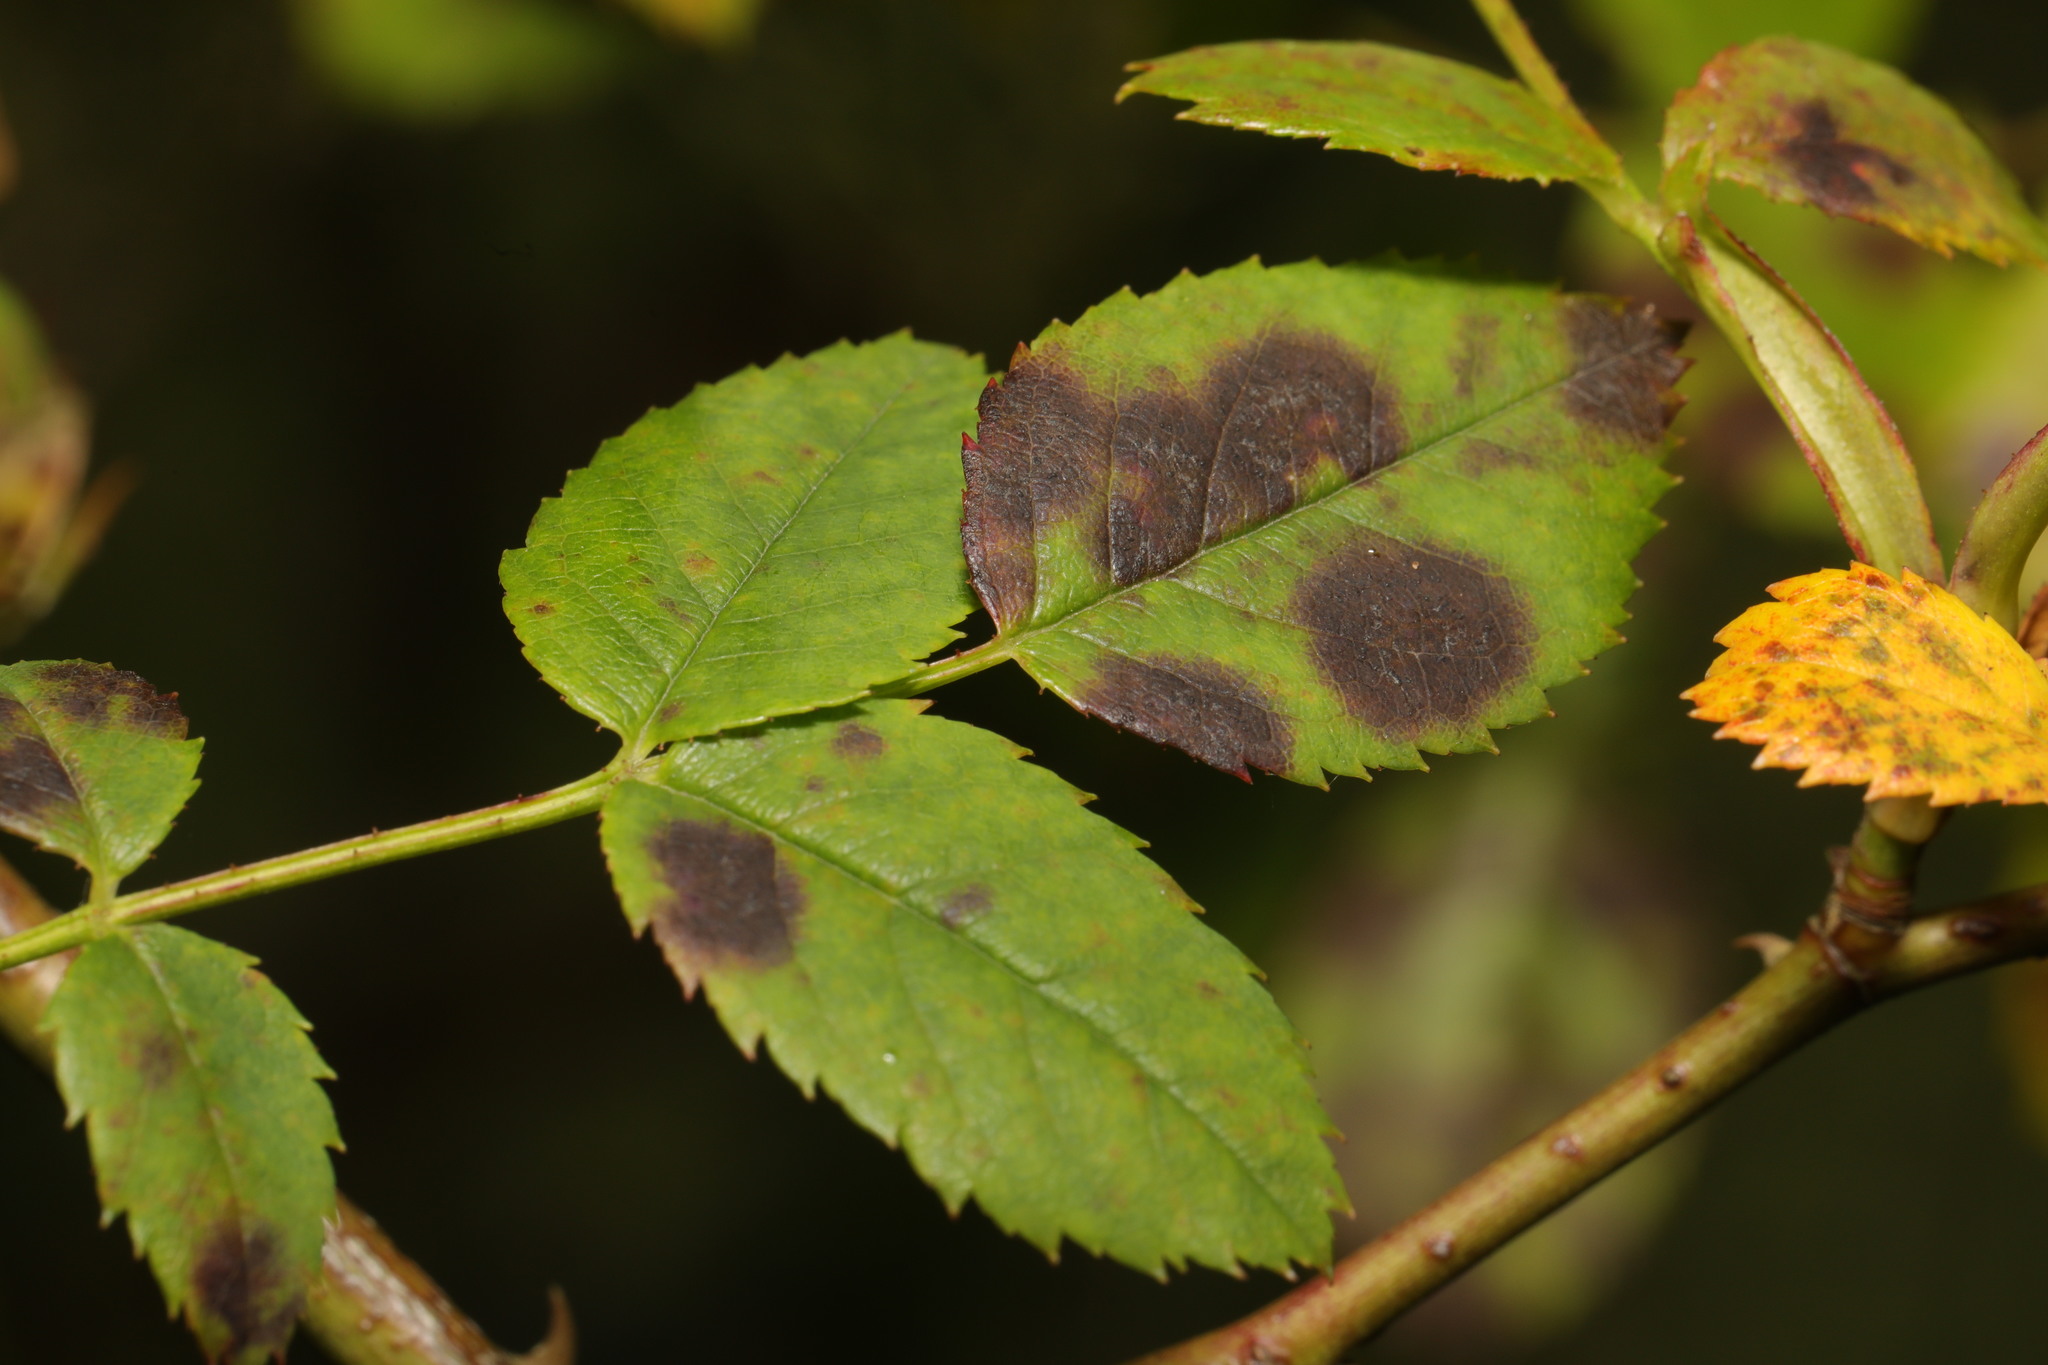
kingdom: Fungi
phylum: Ascomycota
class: Leotiomycetes
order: Helotiales
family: Drepanopezizaceae
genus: Diplocarpon
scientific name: Diplocarpon rosae
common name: Rose black-spot
